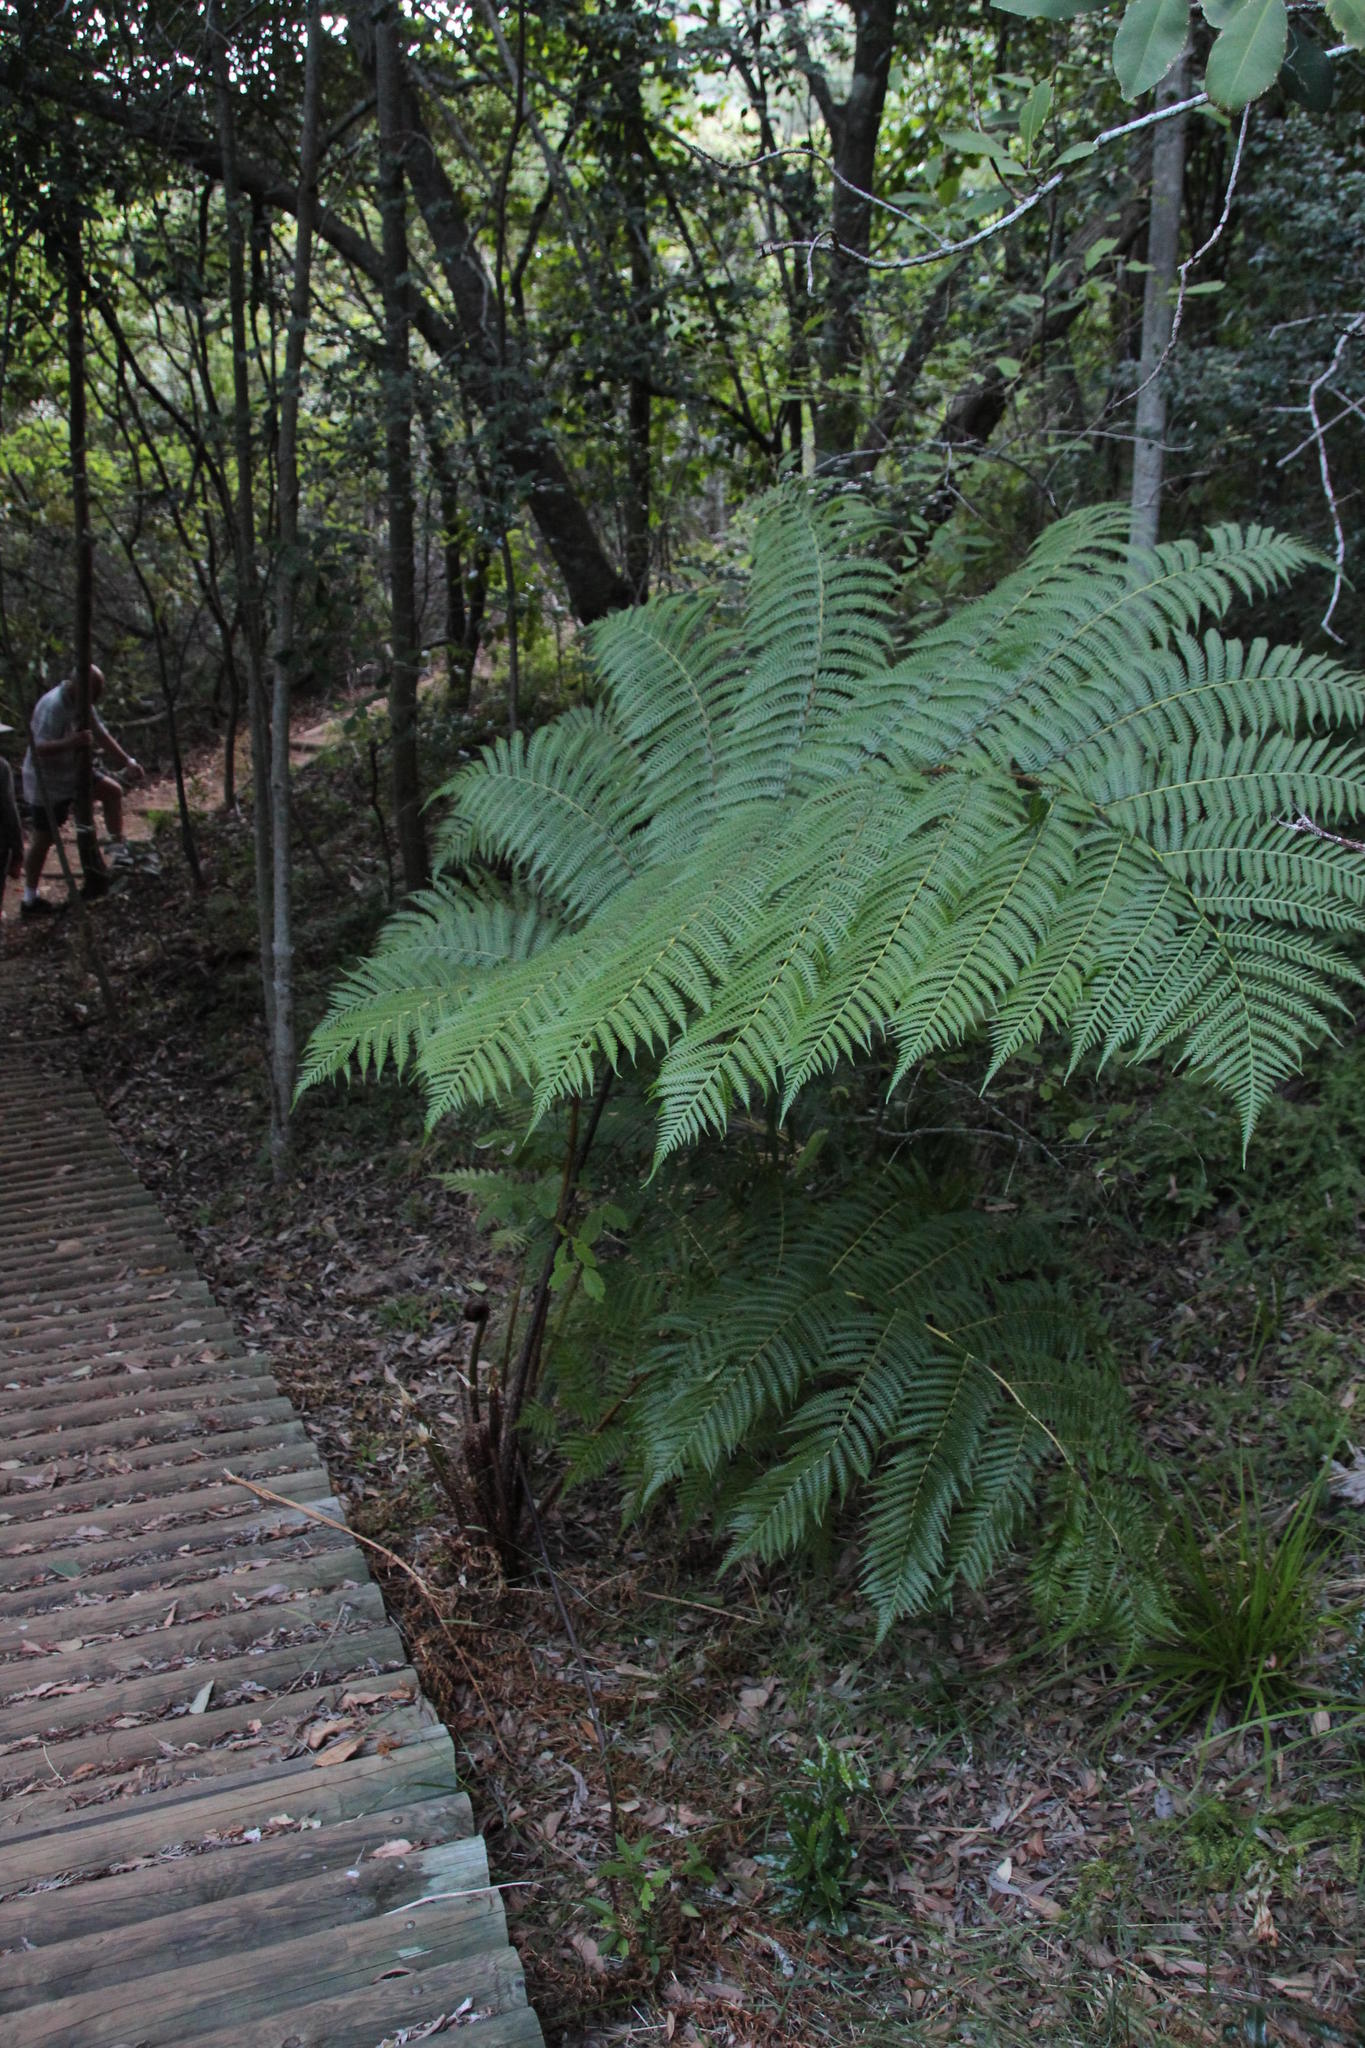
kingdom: Plantae
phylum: Tracheophyta
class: Polypodiopsida
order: Cyatheales
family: Cyatheaceae
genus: Sphaeropteris
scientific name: Sphaeropteris cooperi
